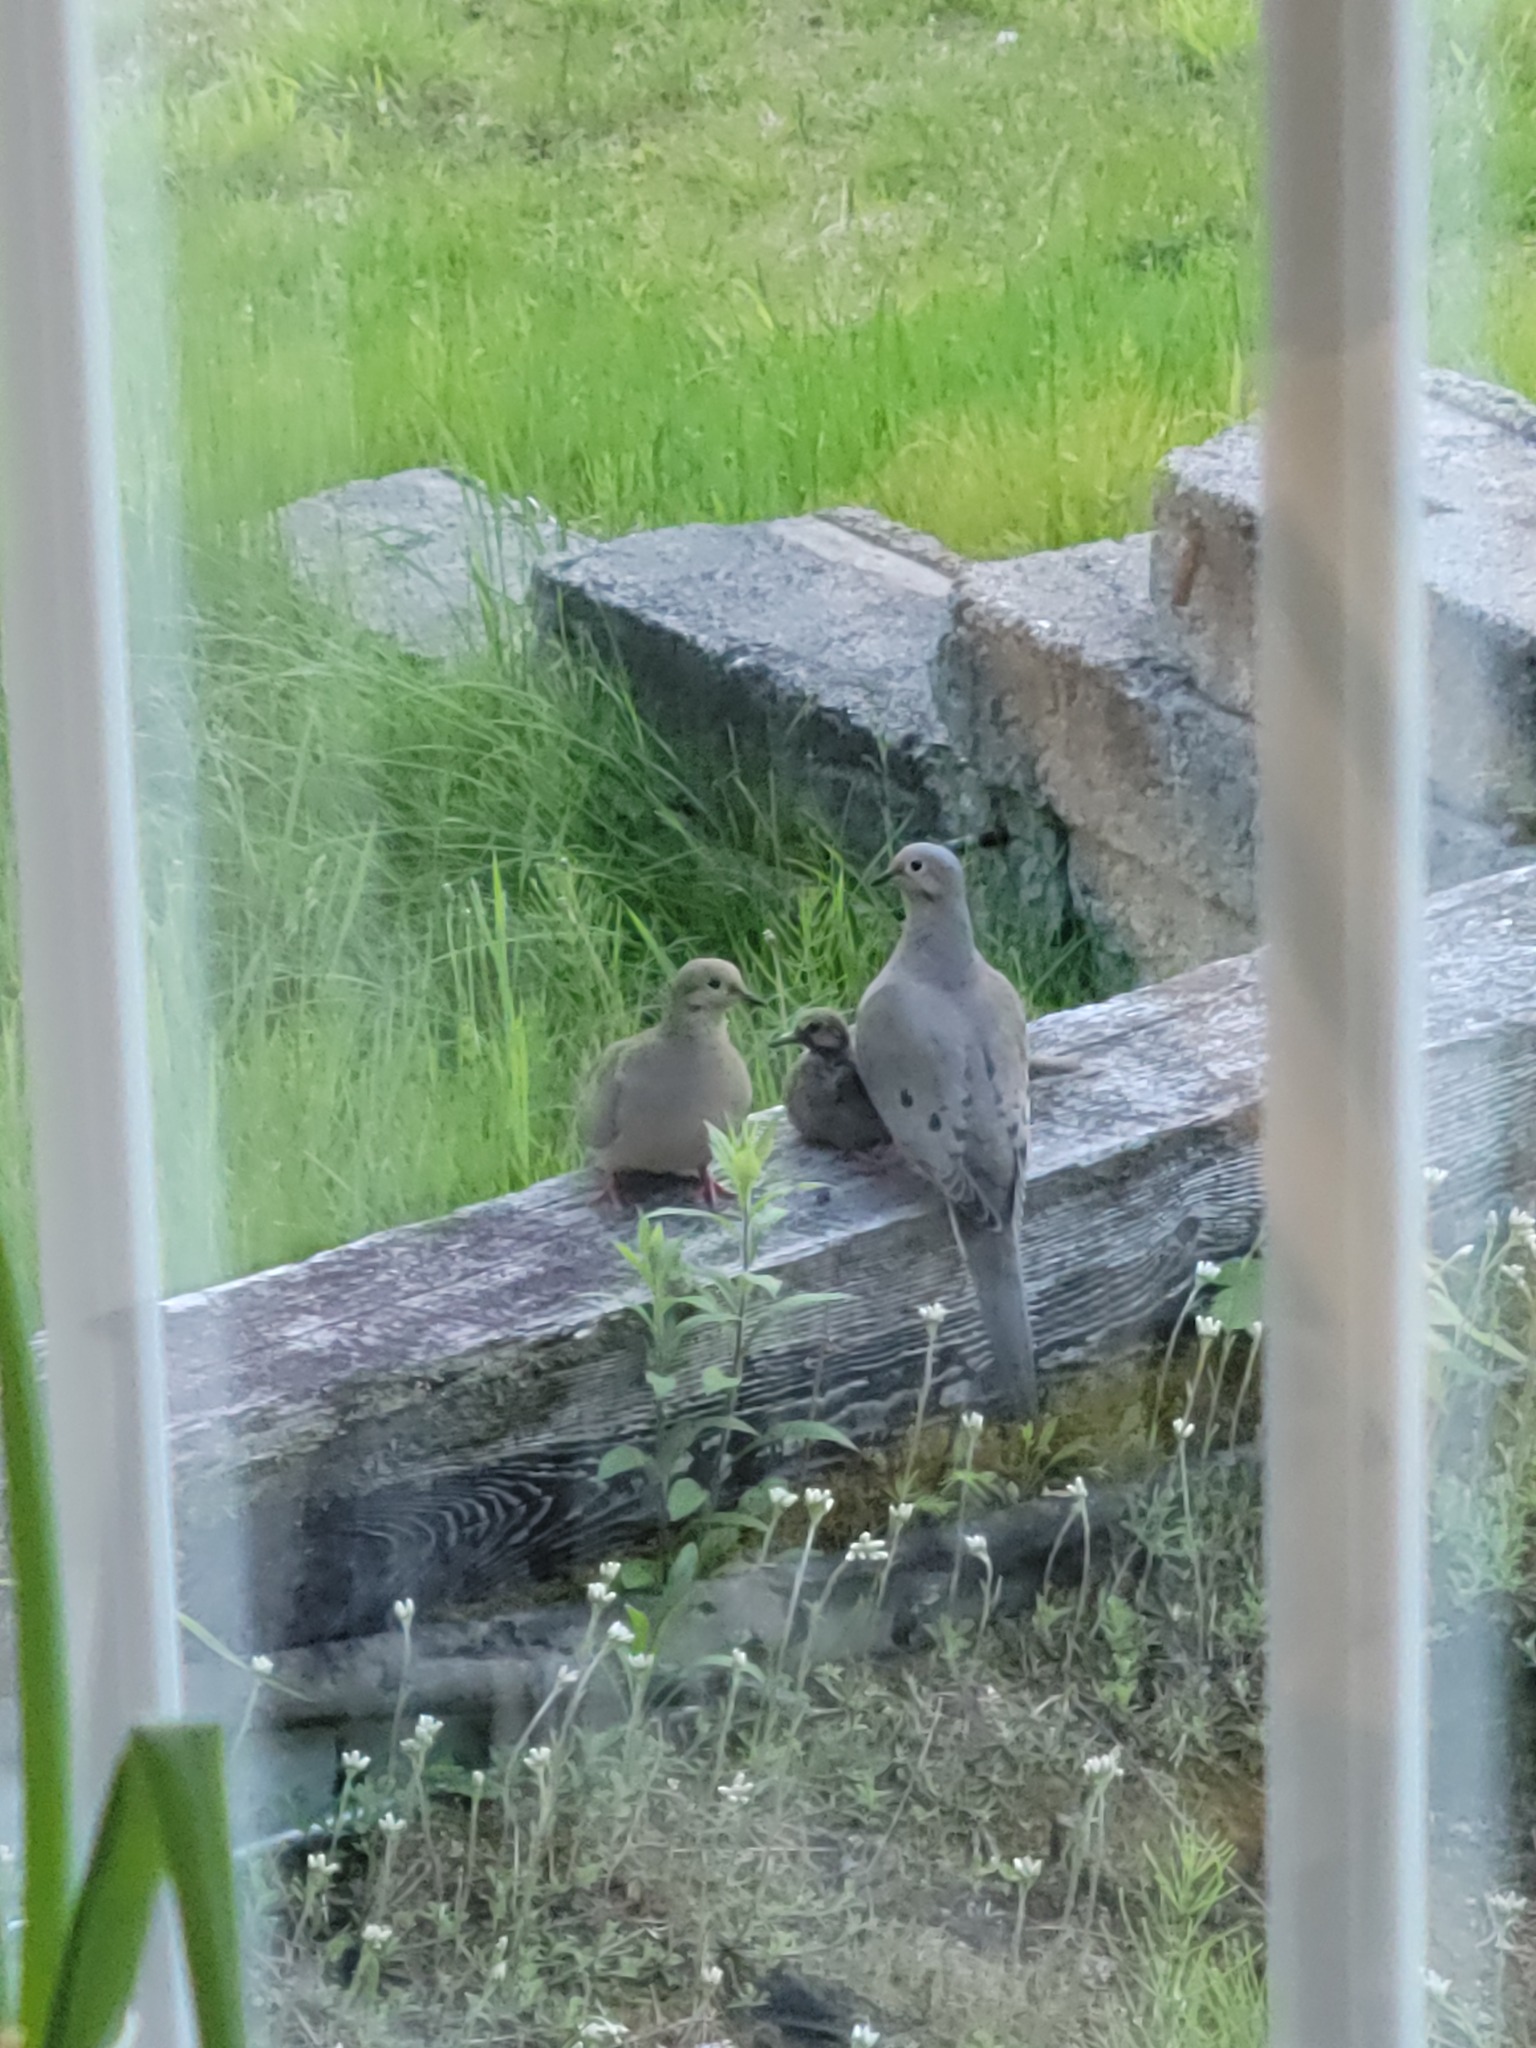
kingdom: Animalia
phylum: Chordata
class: Aves
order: Columbiformes
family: Columbidae
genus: Zenaida
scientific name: Zenaida macroura
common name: Mourning dove
